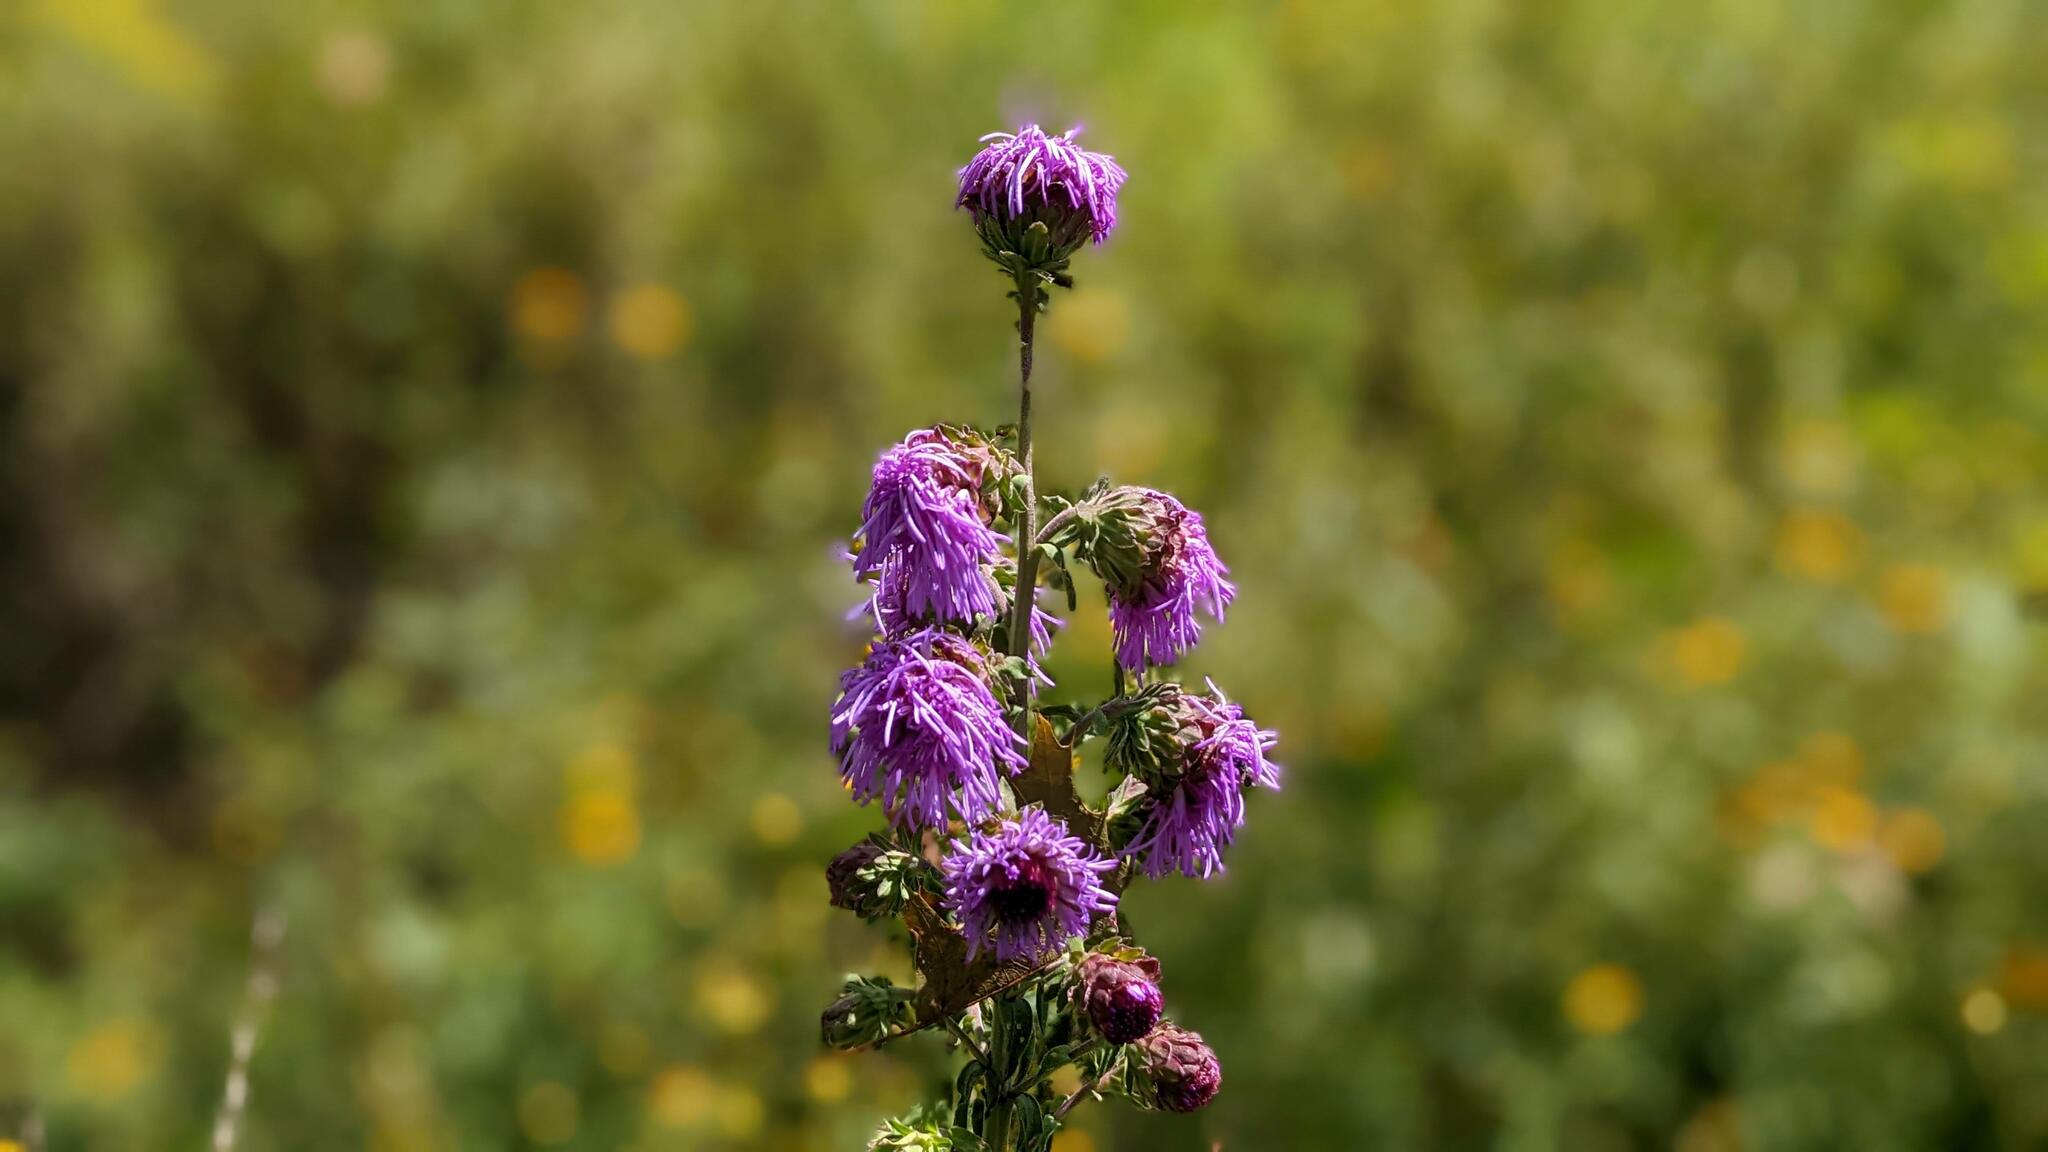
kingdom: Plantae
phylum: Tracheophyta
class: Magnoliopsida
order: Asterales
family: Asteraceae
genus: Liatris
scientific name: Liatris scariosa
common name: Northern gayfeather
